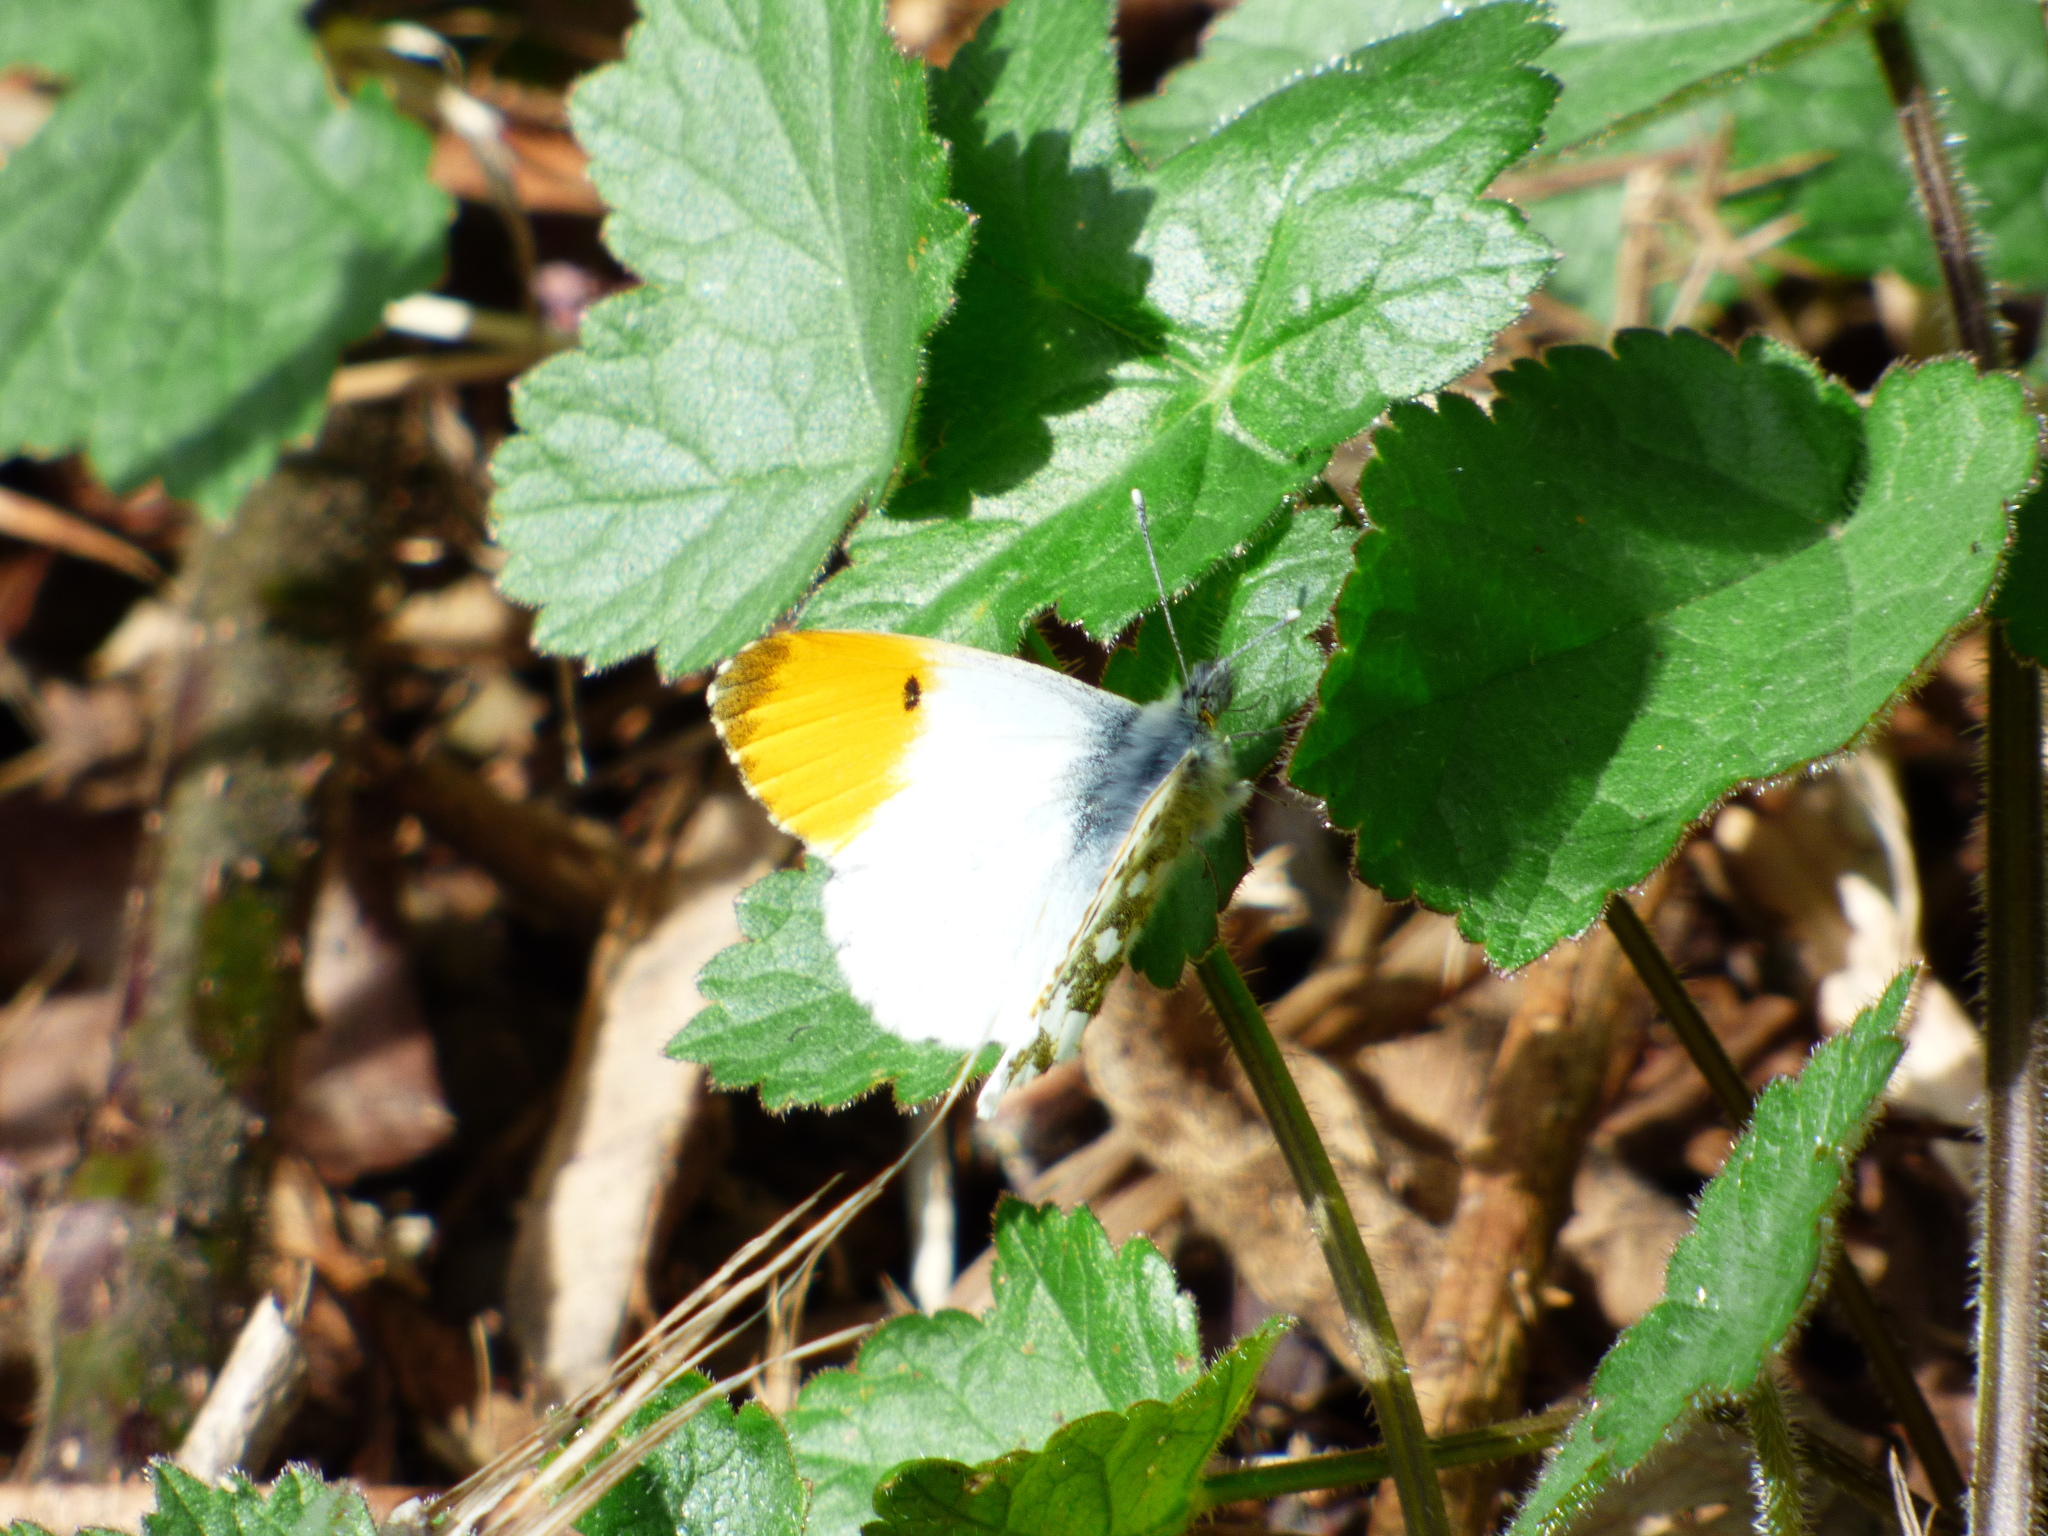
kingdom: Animalia
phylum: Arthropoda
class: Insecta
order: Lepidoptera
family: Pieridae
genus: Anthocharis
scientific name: Anthocharis cardamines
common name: Orange-tip
